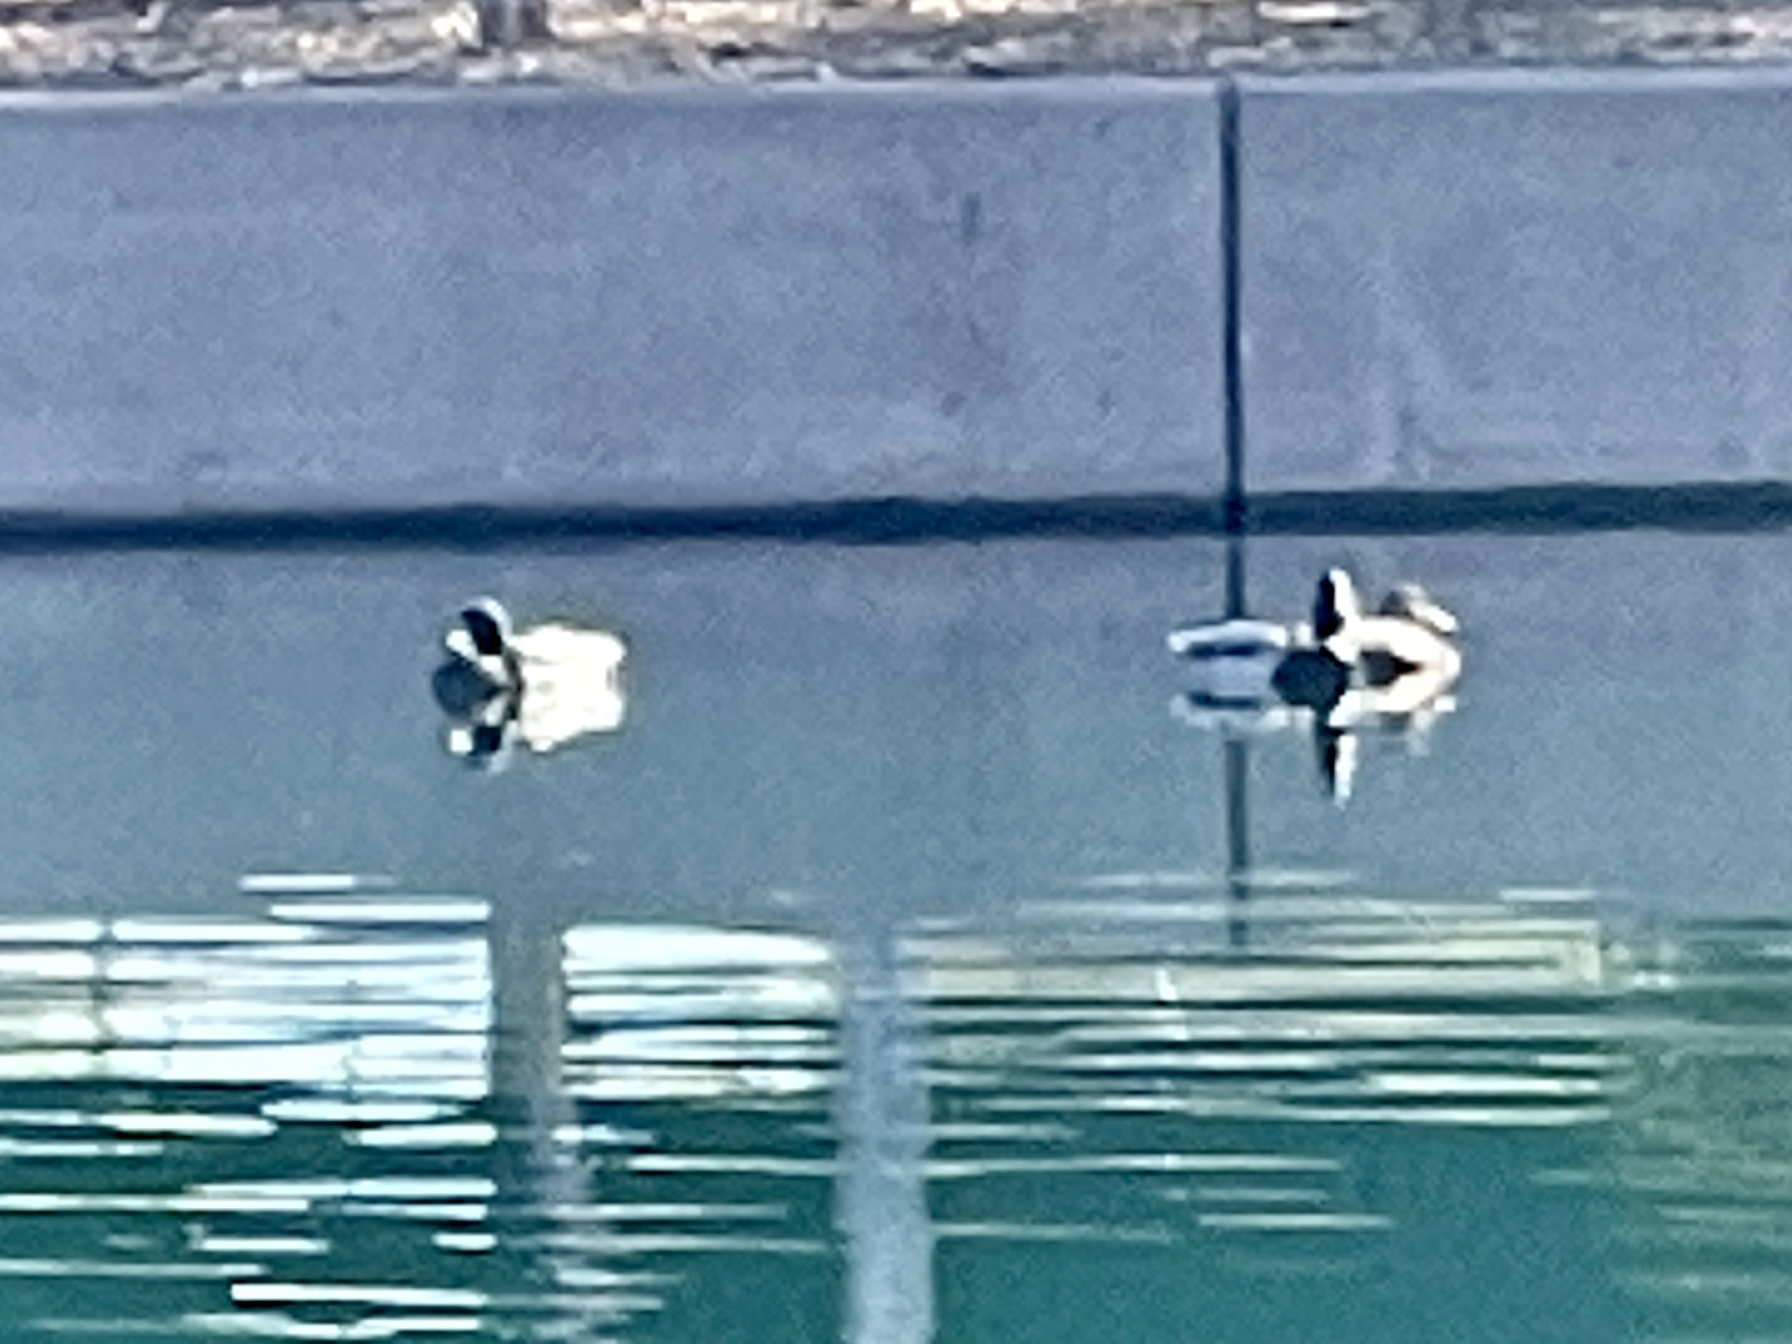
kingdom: Animalia
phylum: Chordata
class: Aves
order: Anseriformes
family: Anatidae
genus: Anas
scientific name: Anas platyrhynchos
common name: Mallard
